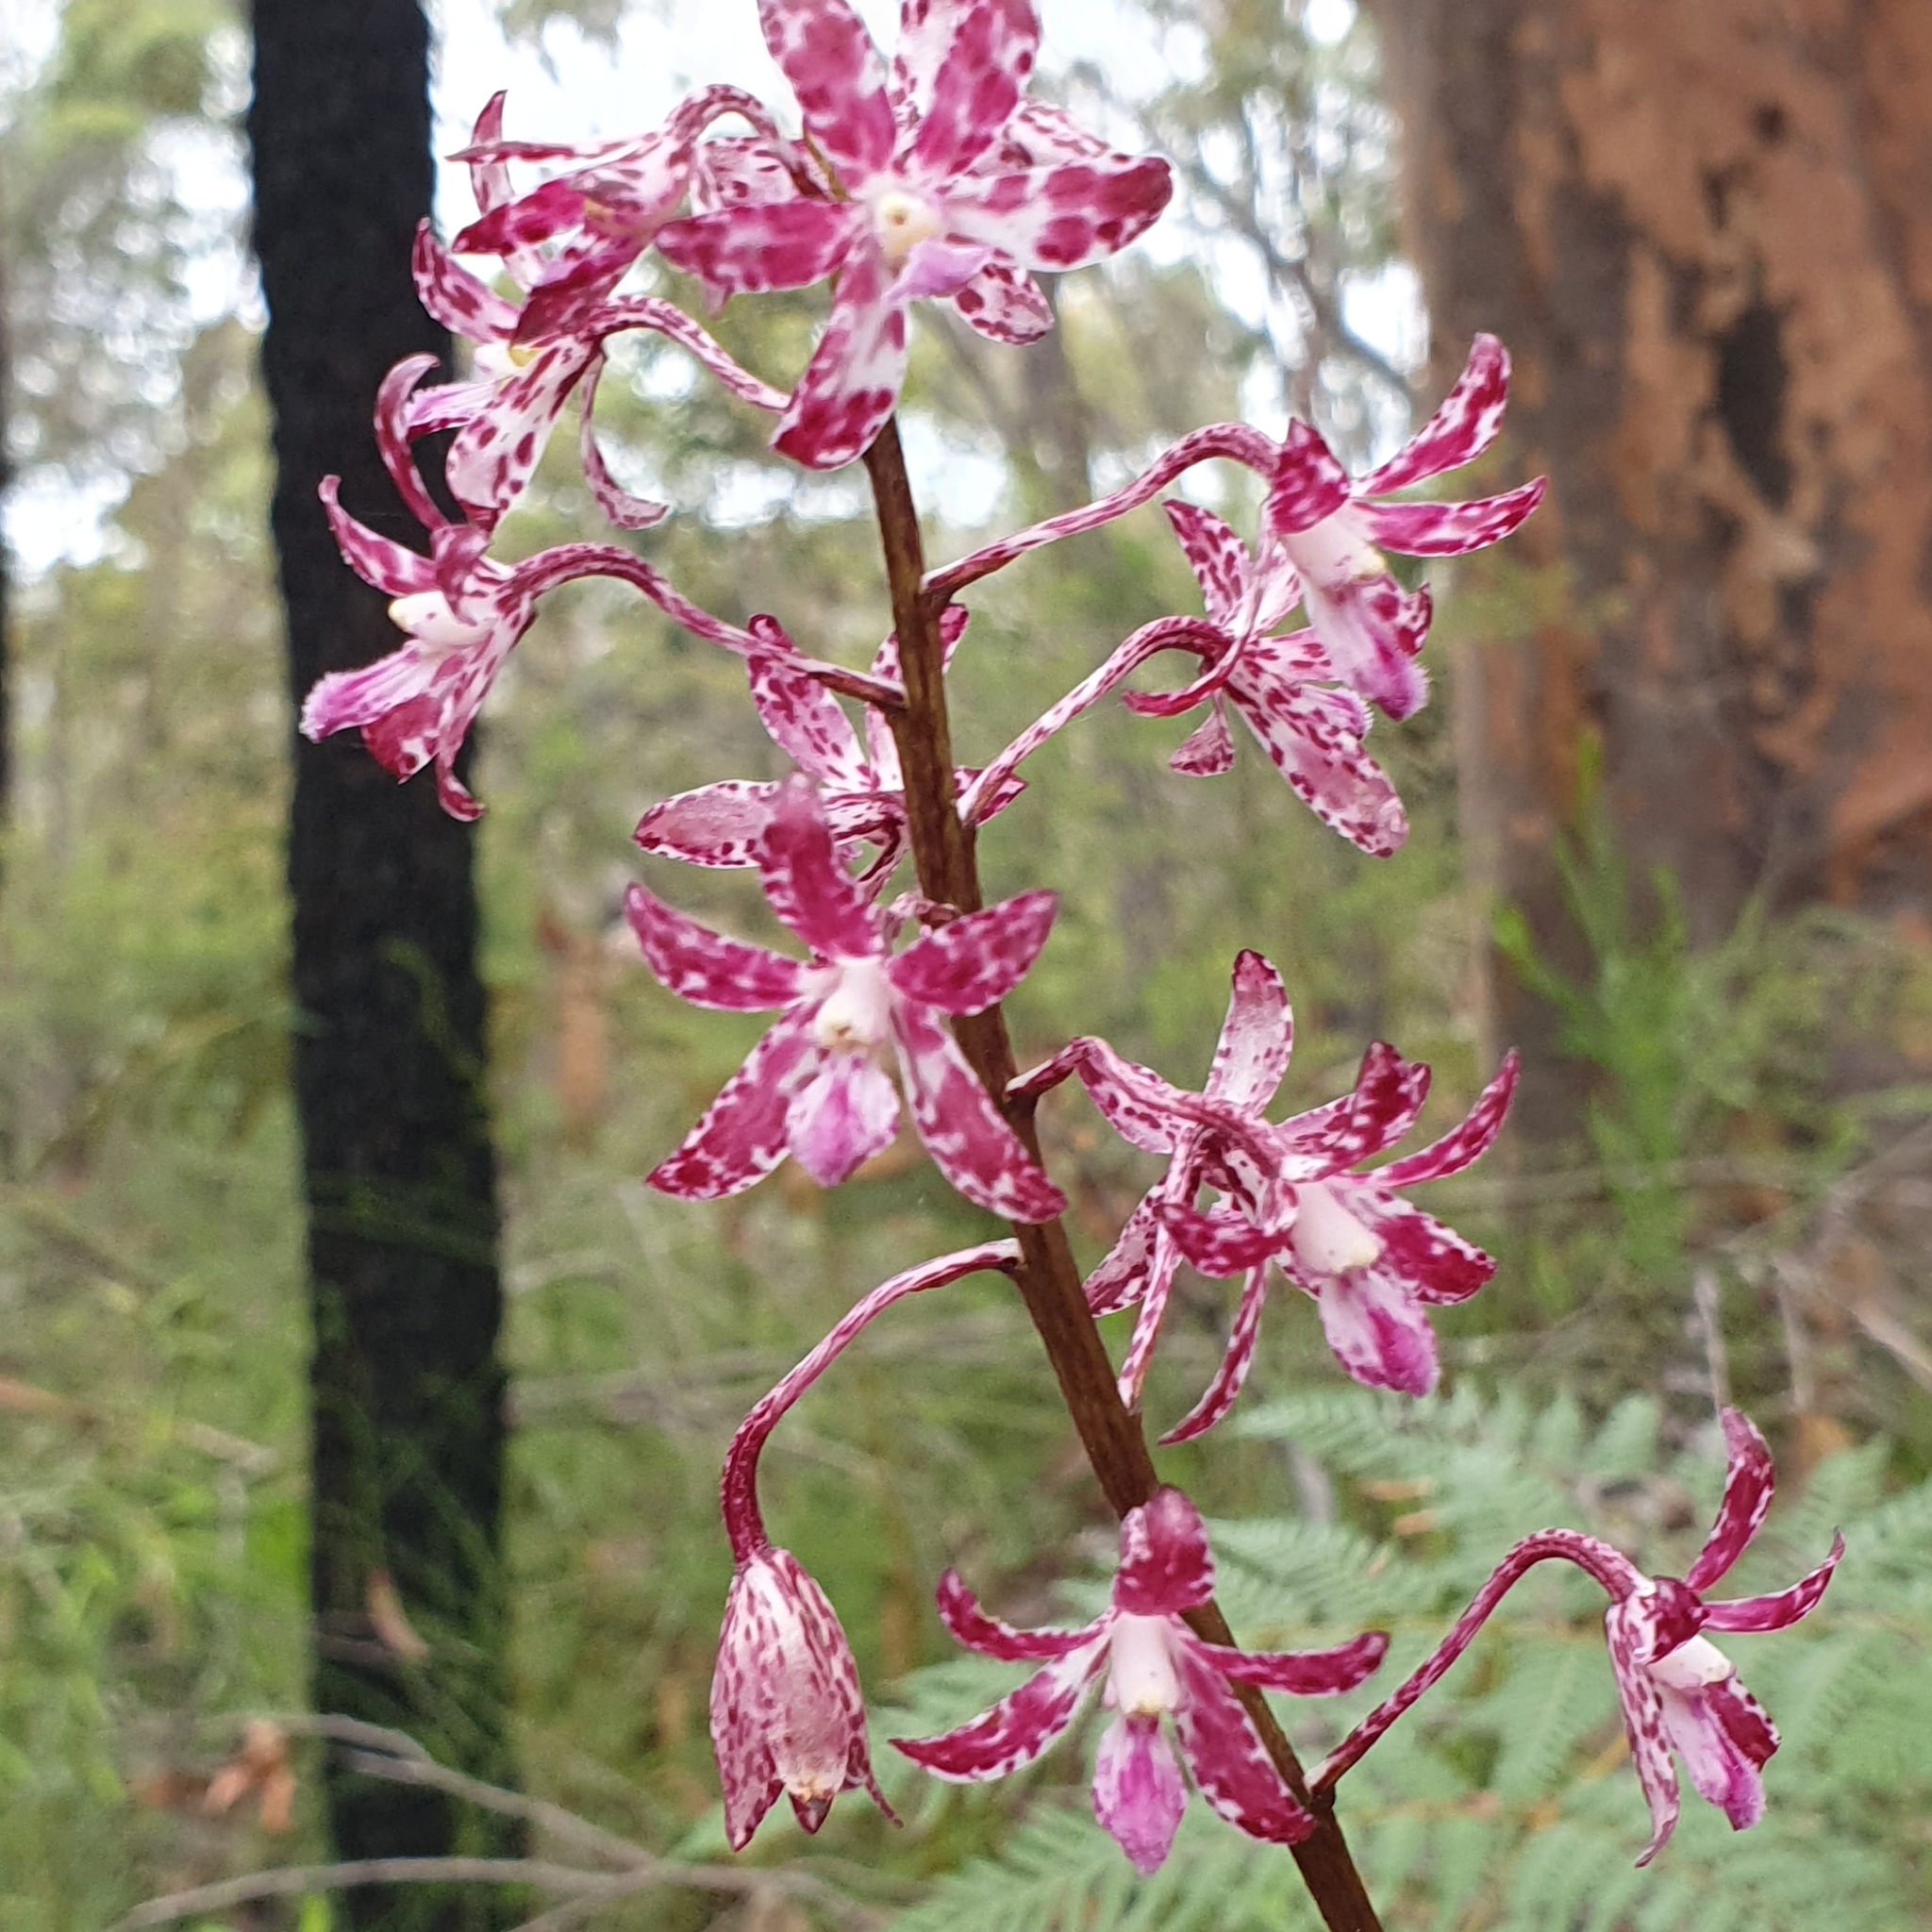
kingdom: Plantae
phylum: Tracheophyta
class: Liliopsida
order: Asparagales
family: Orchidaceae
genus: Dipodium
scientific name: Dipodium variegatum
